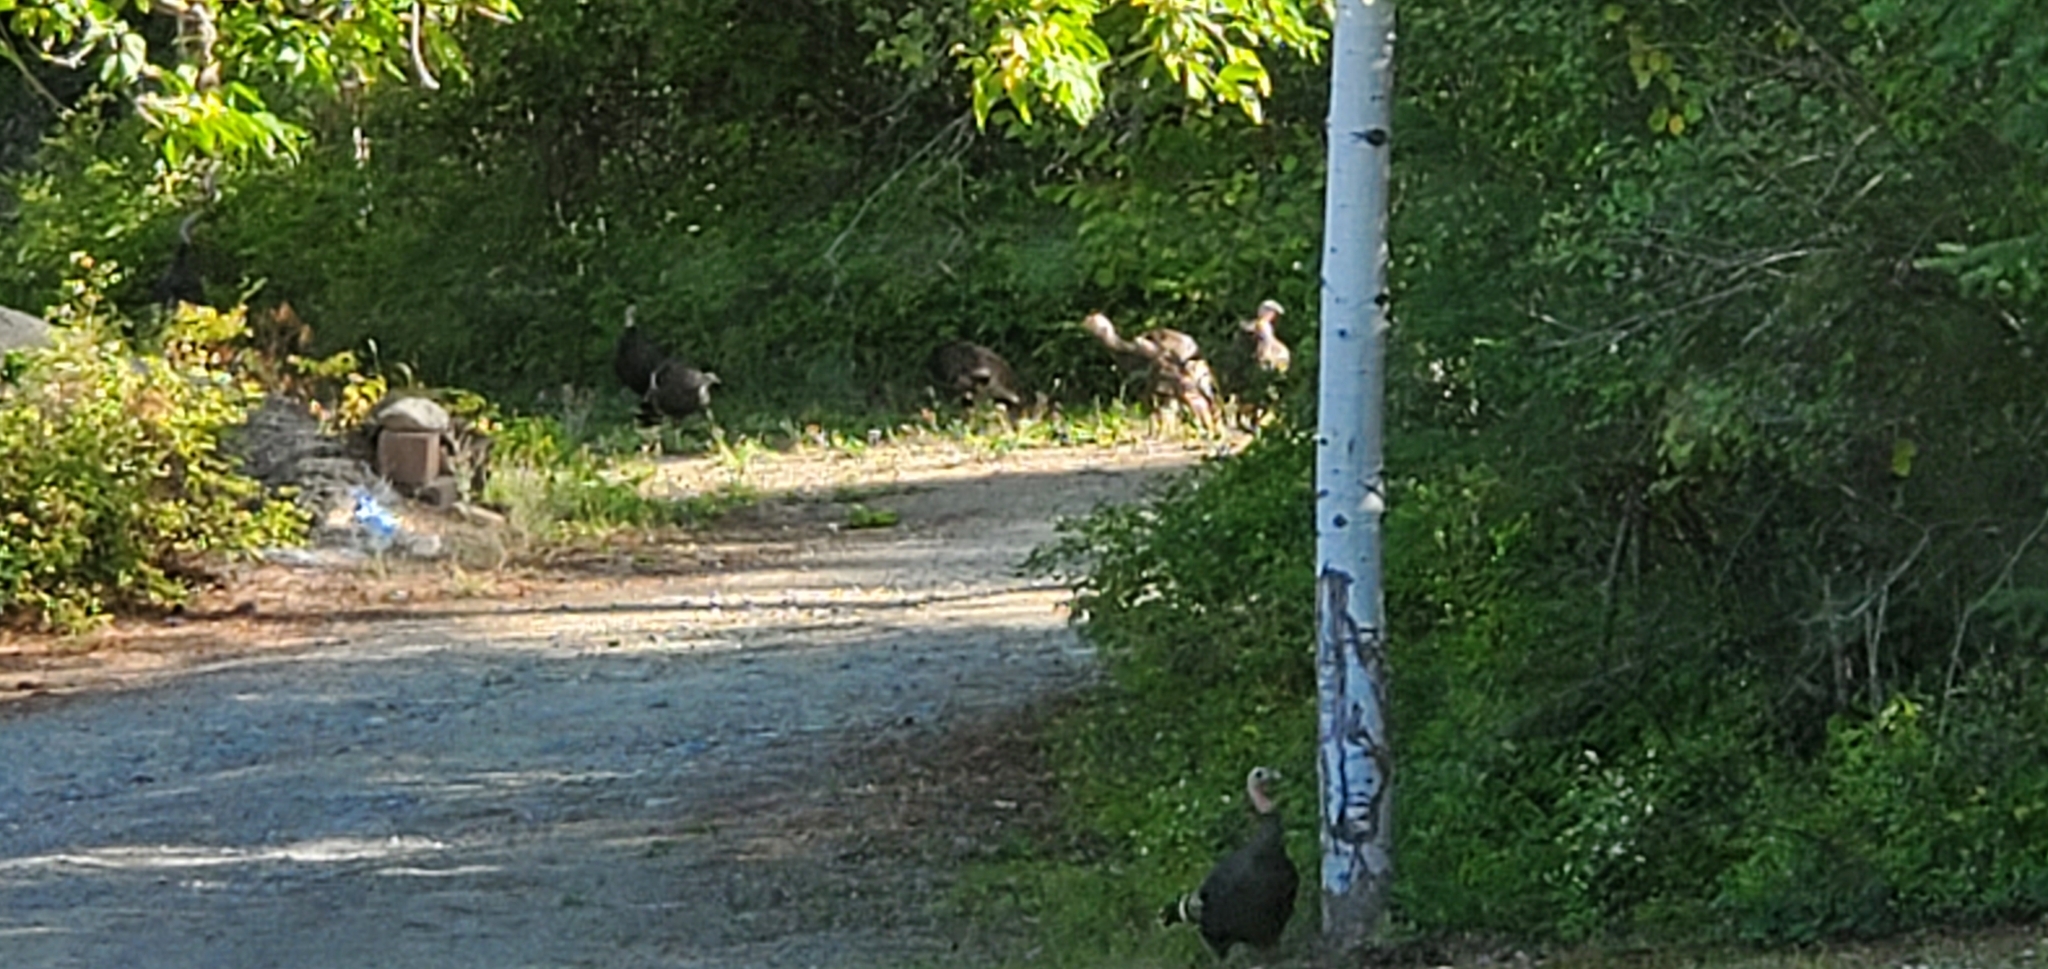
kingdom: Animalia
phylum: Chordata
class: Aves
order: Galliformes
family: Phasianidae
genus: Meleagris
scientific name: Meleagris gallopavo
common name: Wild turkey
